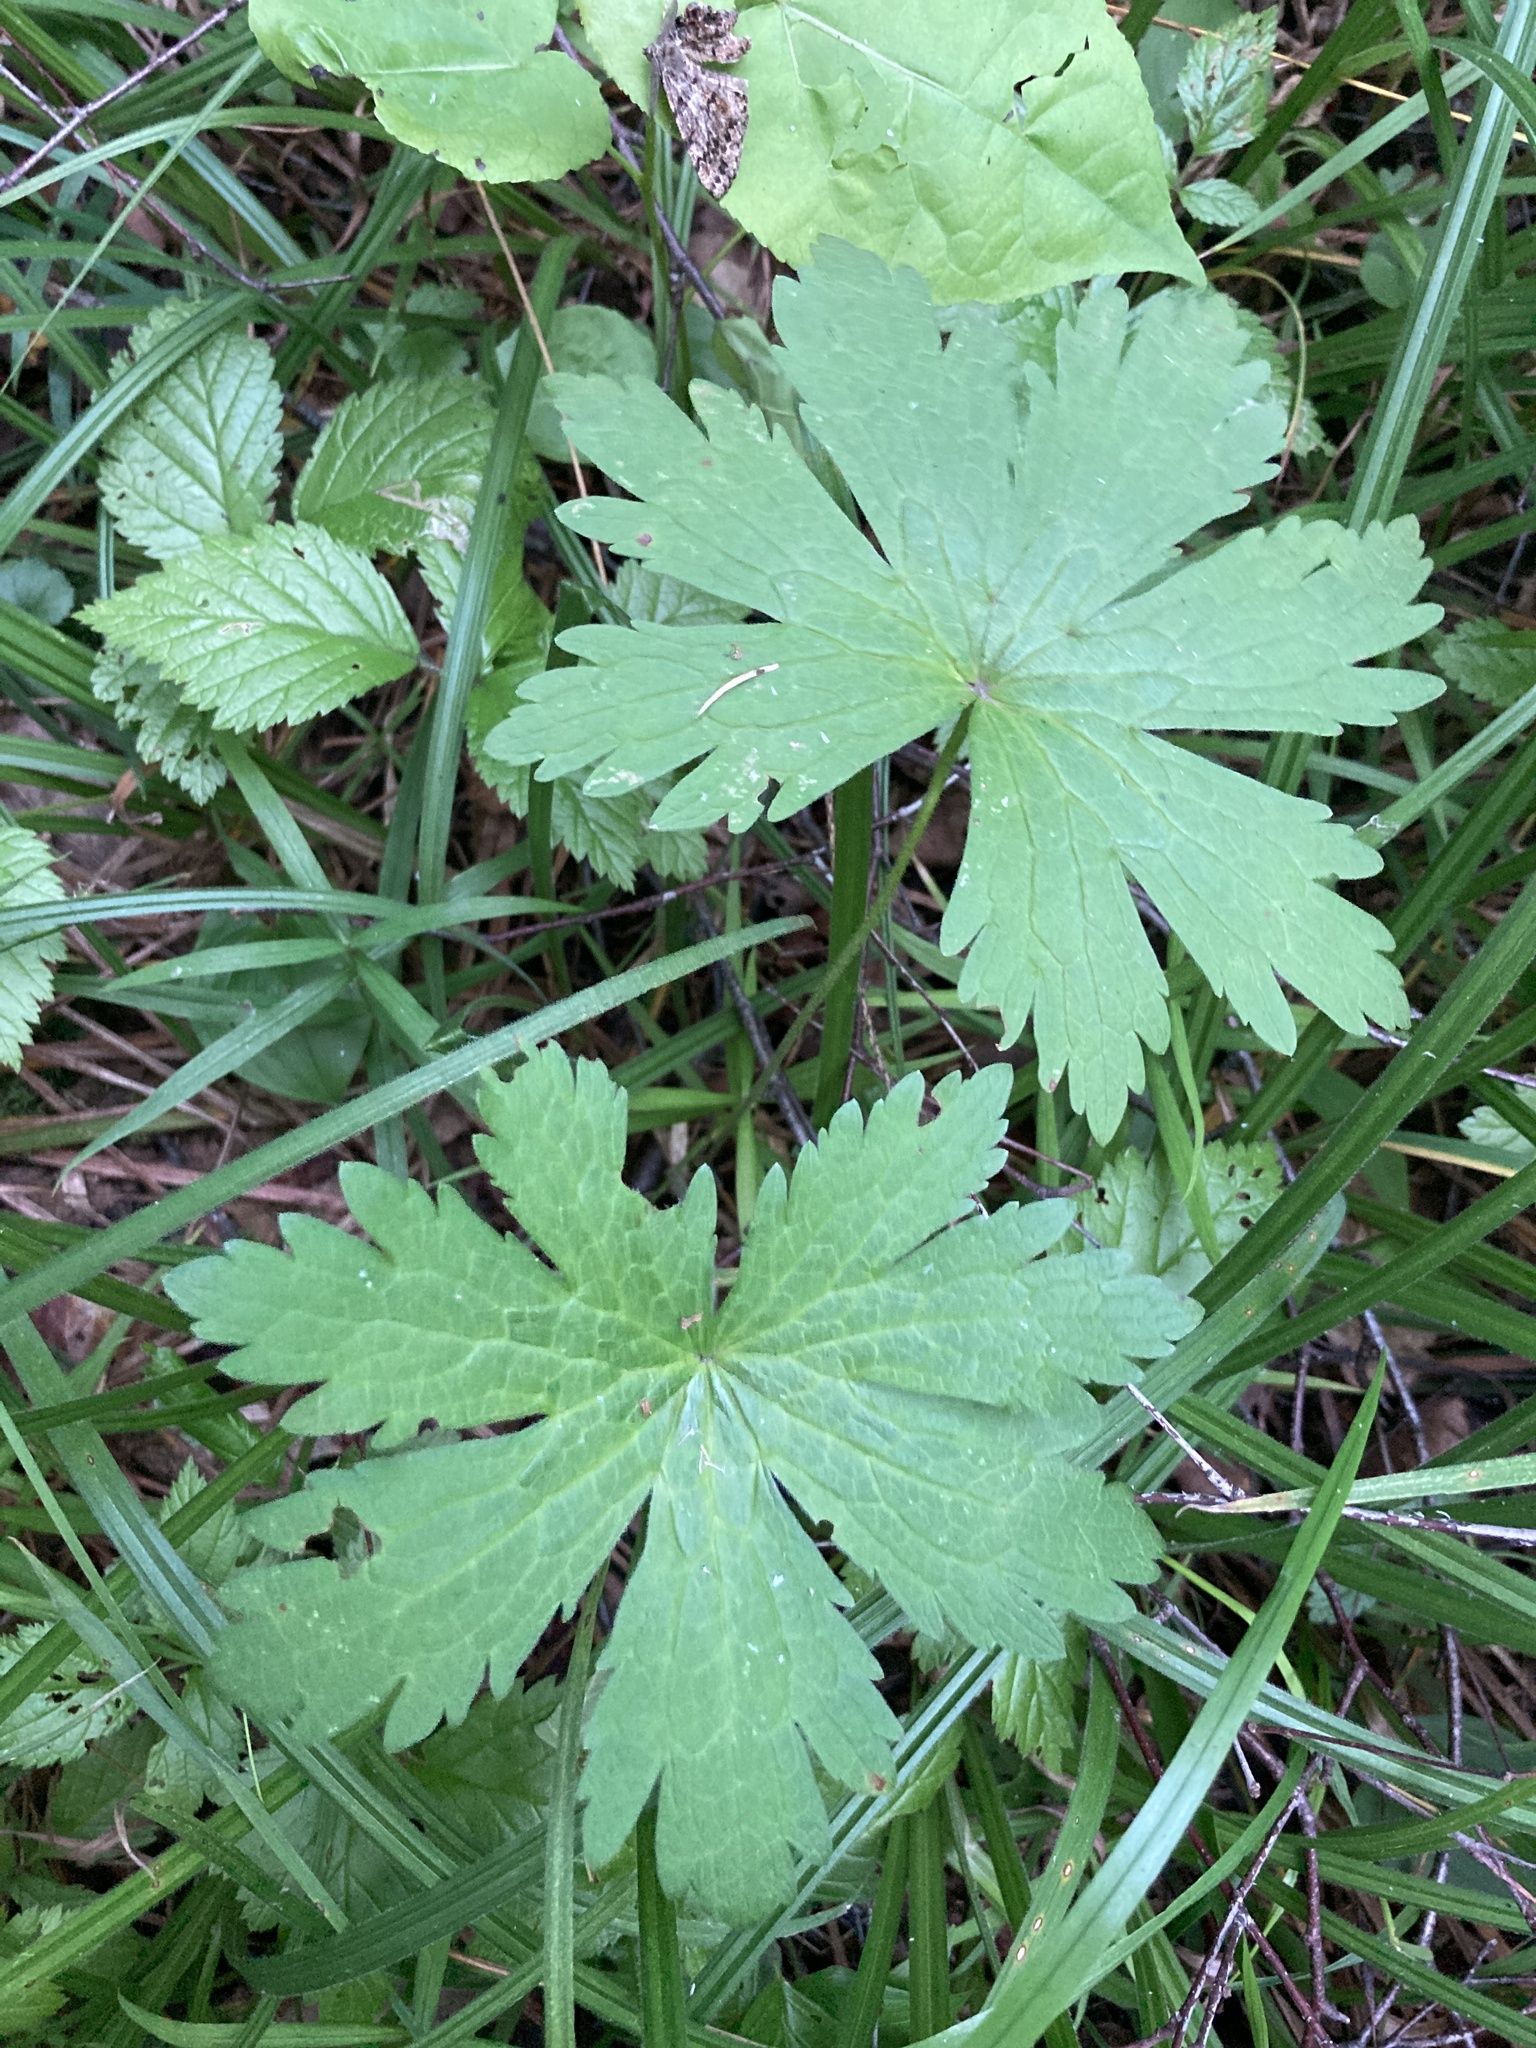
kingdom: Plantae
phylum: Tracheophyta
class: Magnoliopsida
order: Geraniales
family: Geraniaceae
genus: Geranium
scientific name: Geranium sylvaticum
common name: Wood crane's-bill
